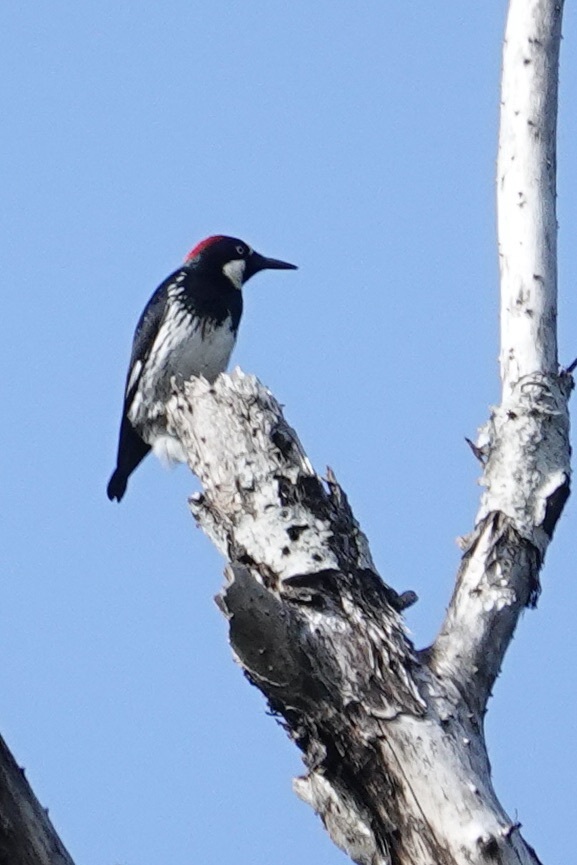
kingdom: Animalia
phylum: Chordata
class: Aves
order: Piciformes
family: Picidae
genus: Melanerpes
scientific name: Melanerpes formicivorus
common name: Acorn woodpecker
